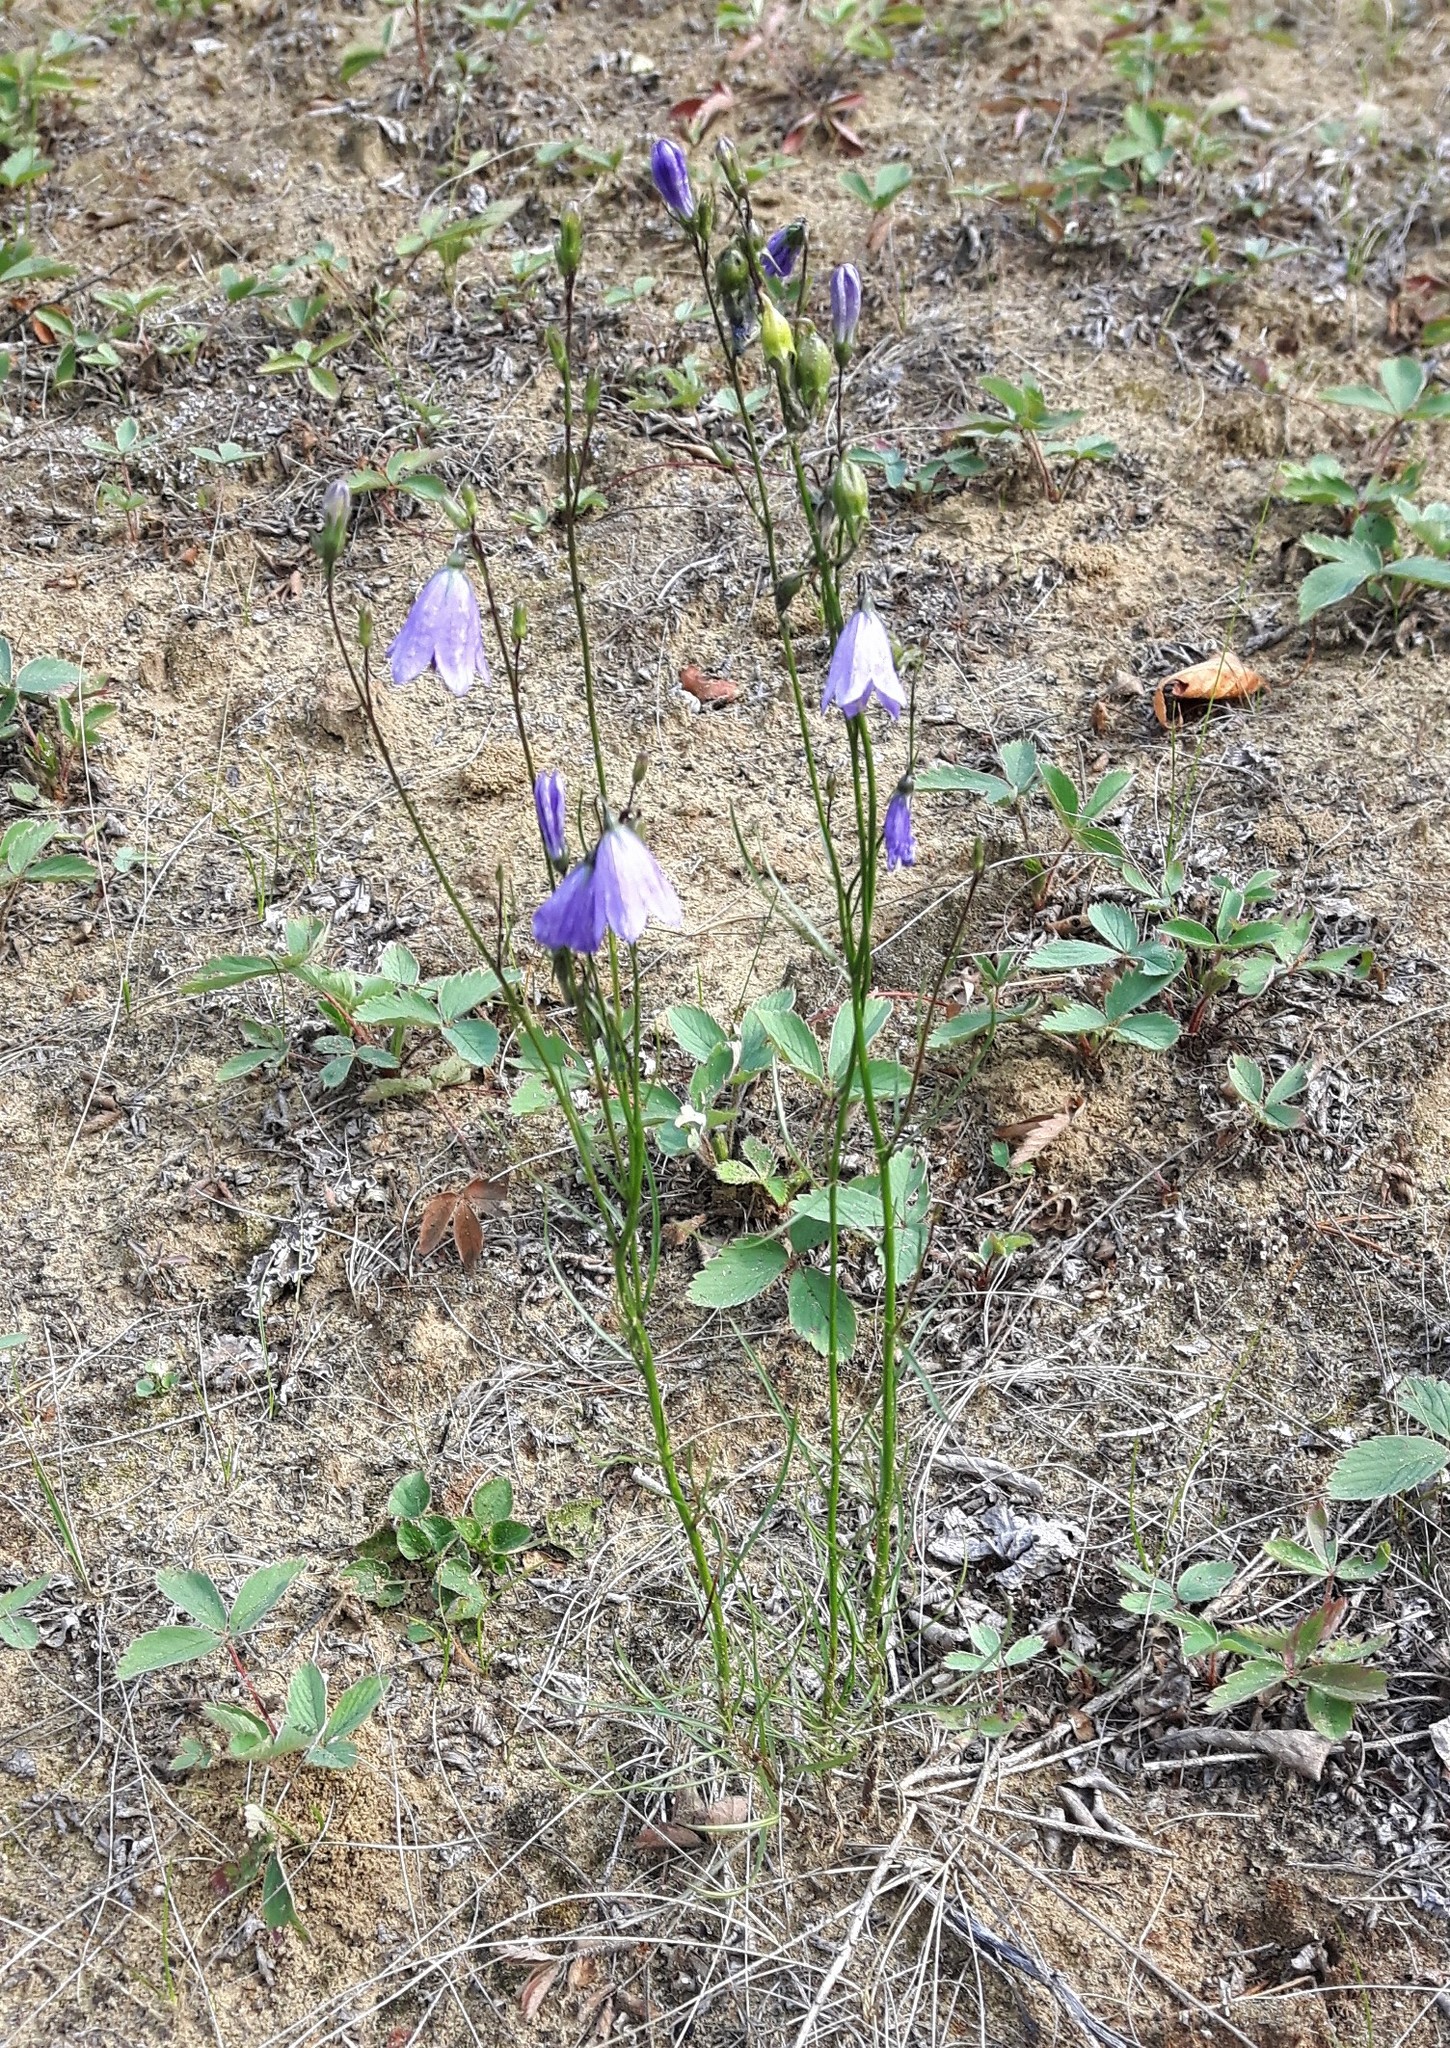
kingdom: Plantae
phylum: Tracheophyta
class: Magnoliopsida
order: Asterales
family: Campanulaceae
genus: Campanula
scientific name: Campanula alaskana
